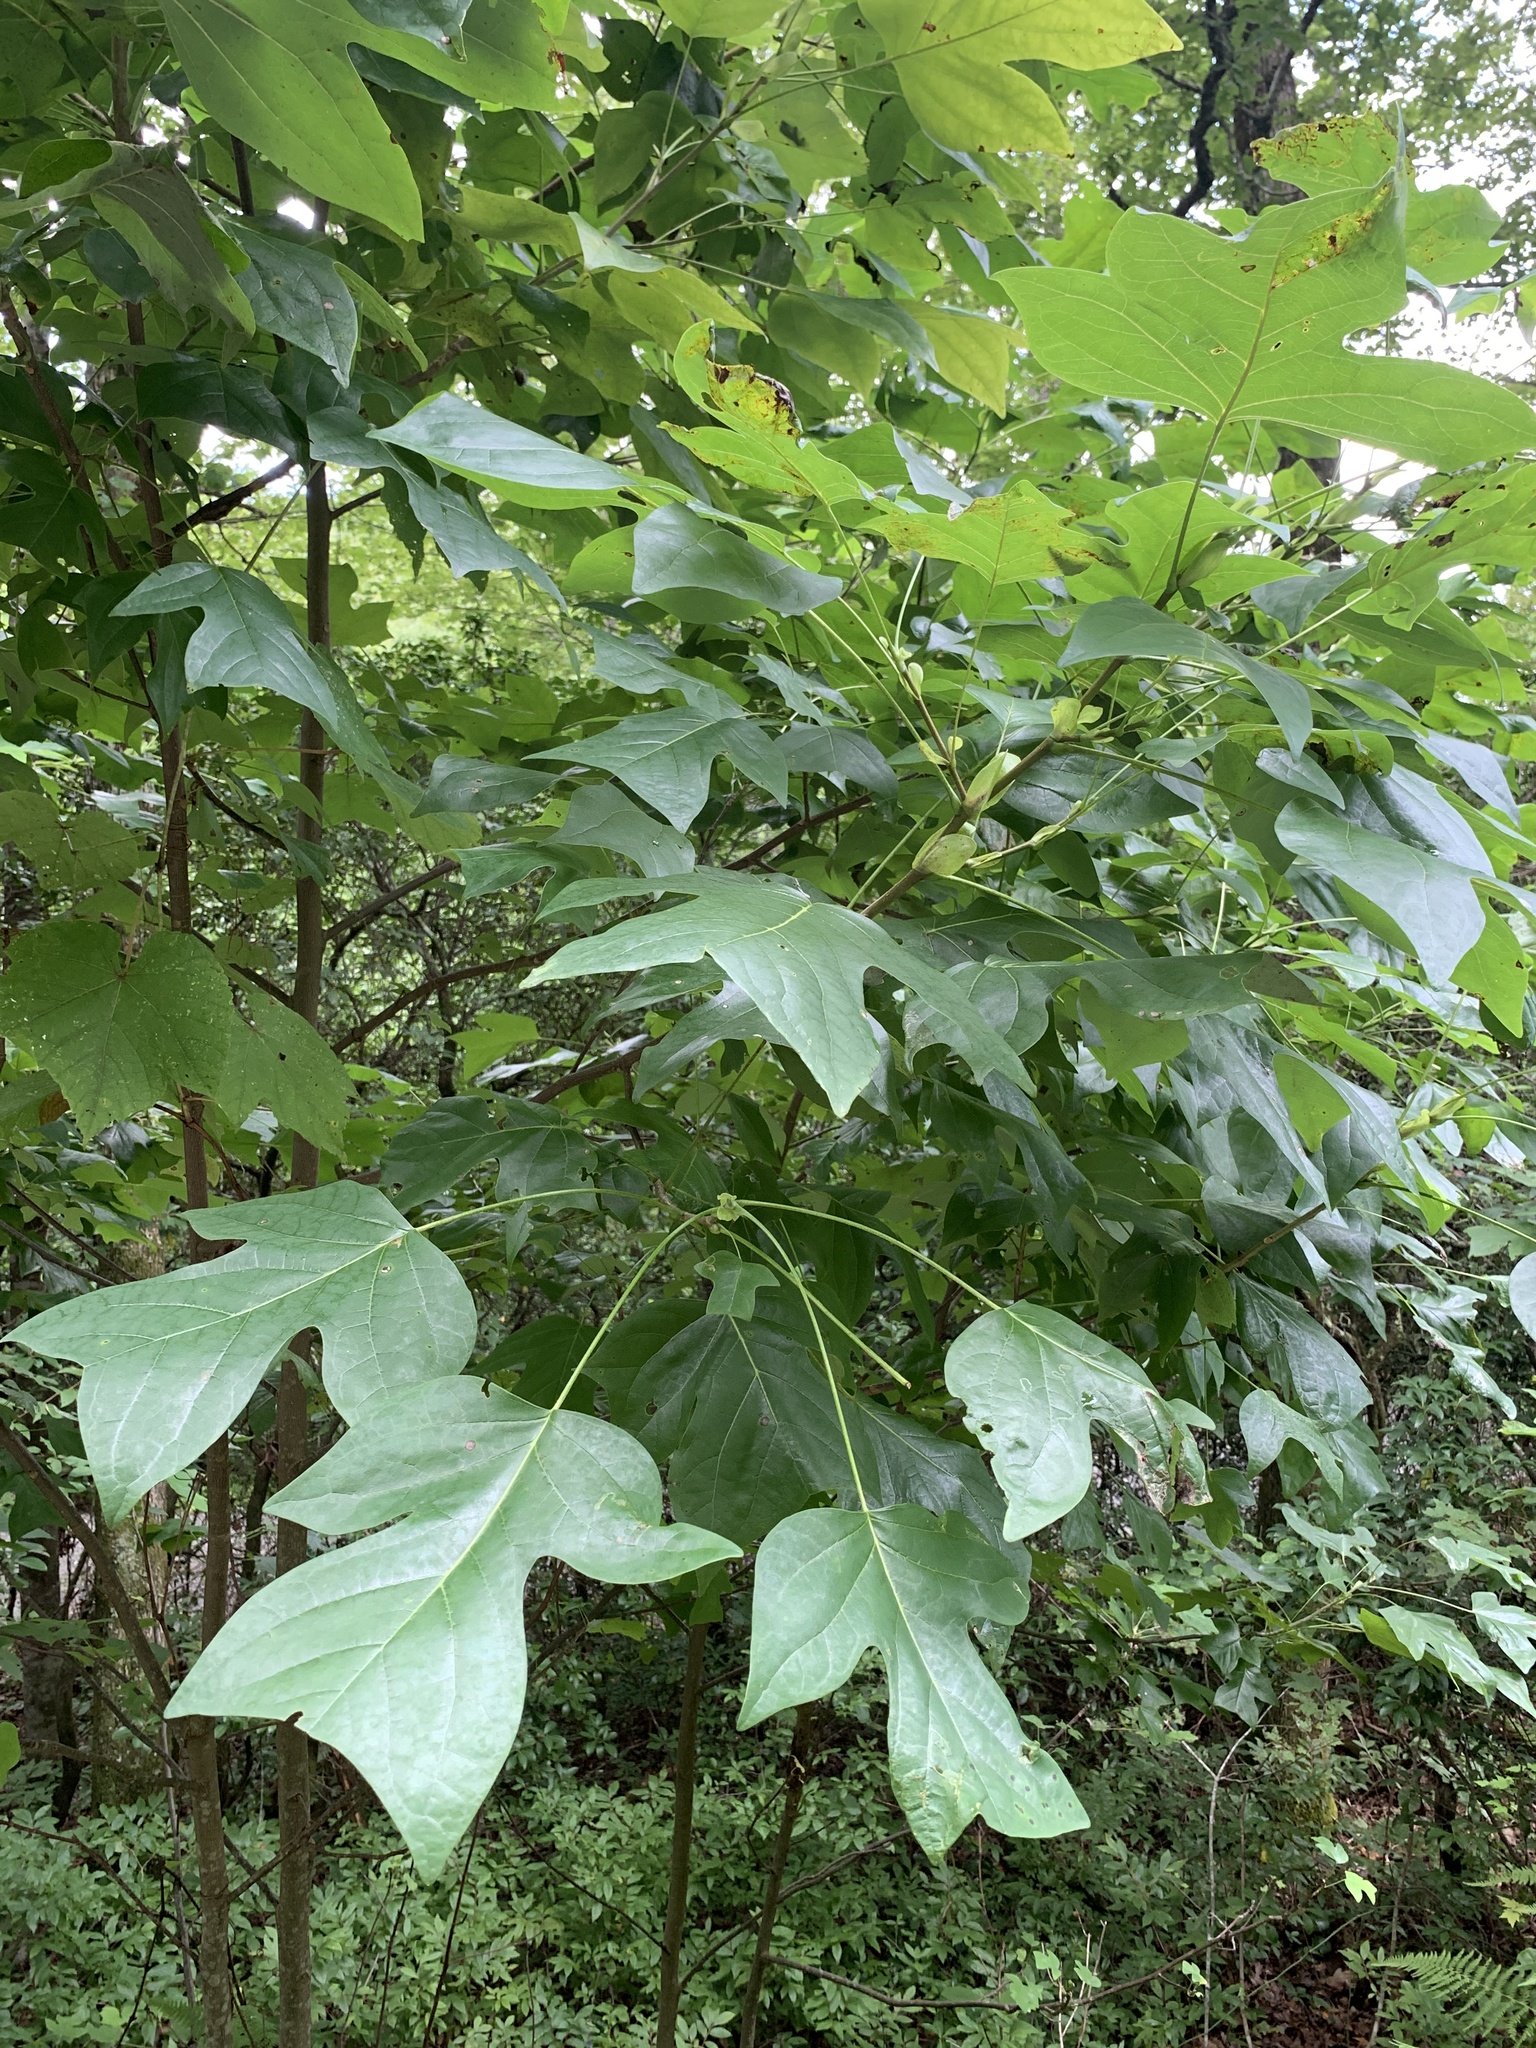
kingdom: Plantae
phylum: Tracheophyta
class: Magnoliopsida
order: Magnoliales
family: Magnoliaceae
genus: Liriodendron
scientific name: Liriodendron tulipifera
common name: Tulip tree
